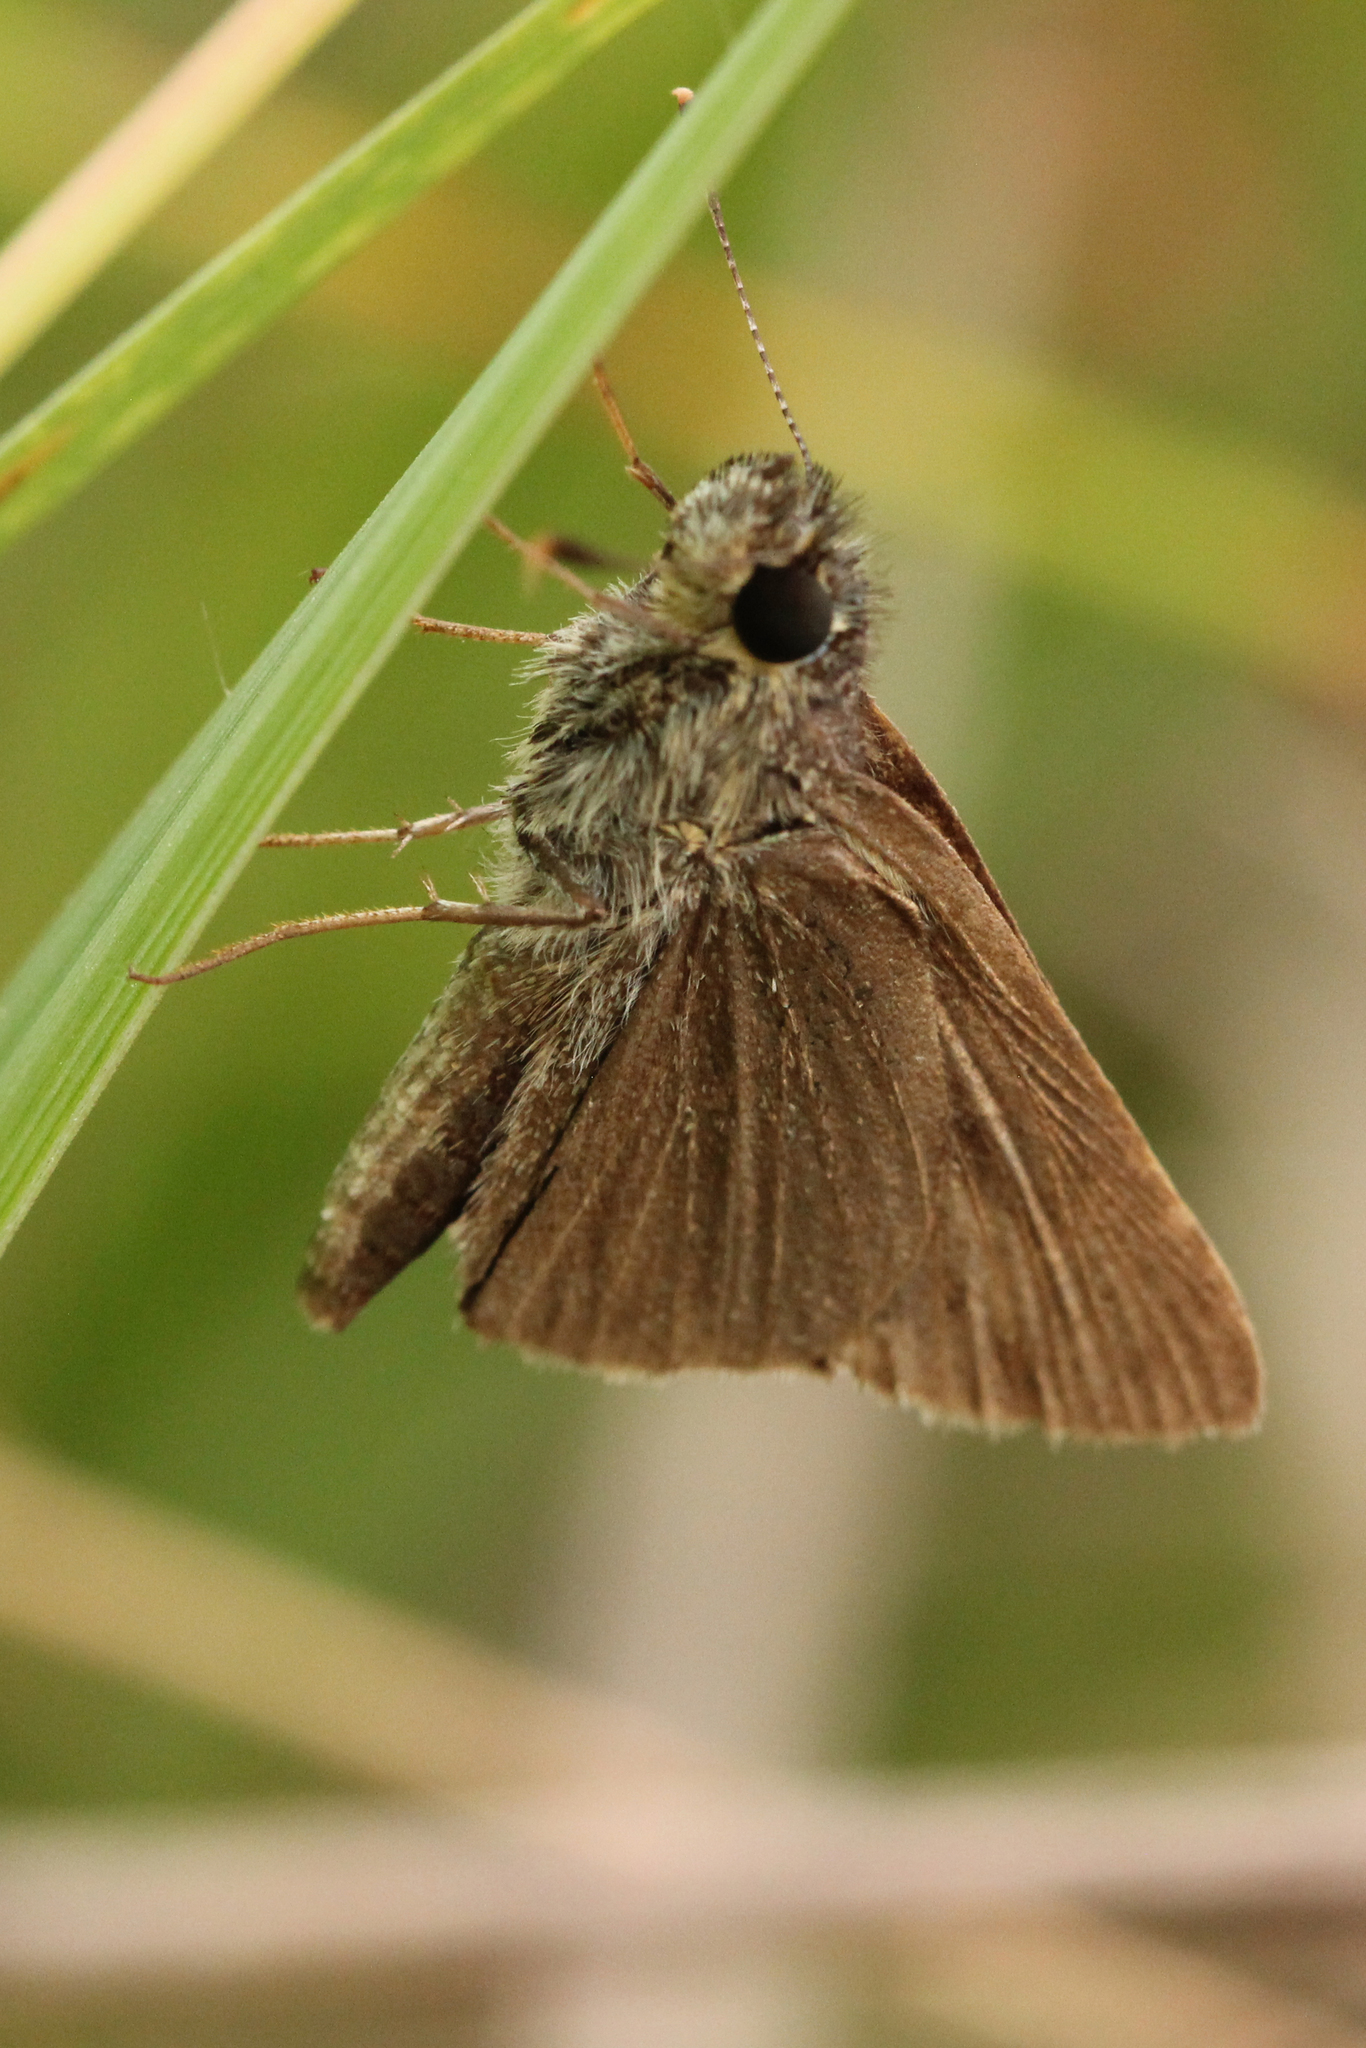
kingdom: Animalia
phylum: Arthropoda
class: Insecta
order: Lepidoptera
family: Hesperiidae
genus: Nastra
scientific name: Nastra lherminier
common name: Swarthy skipper
